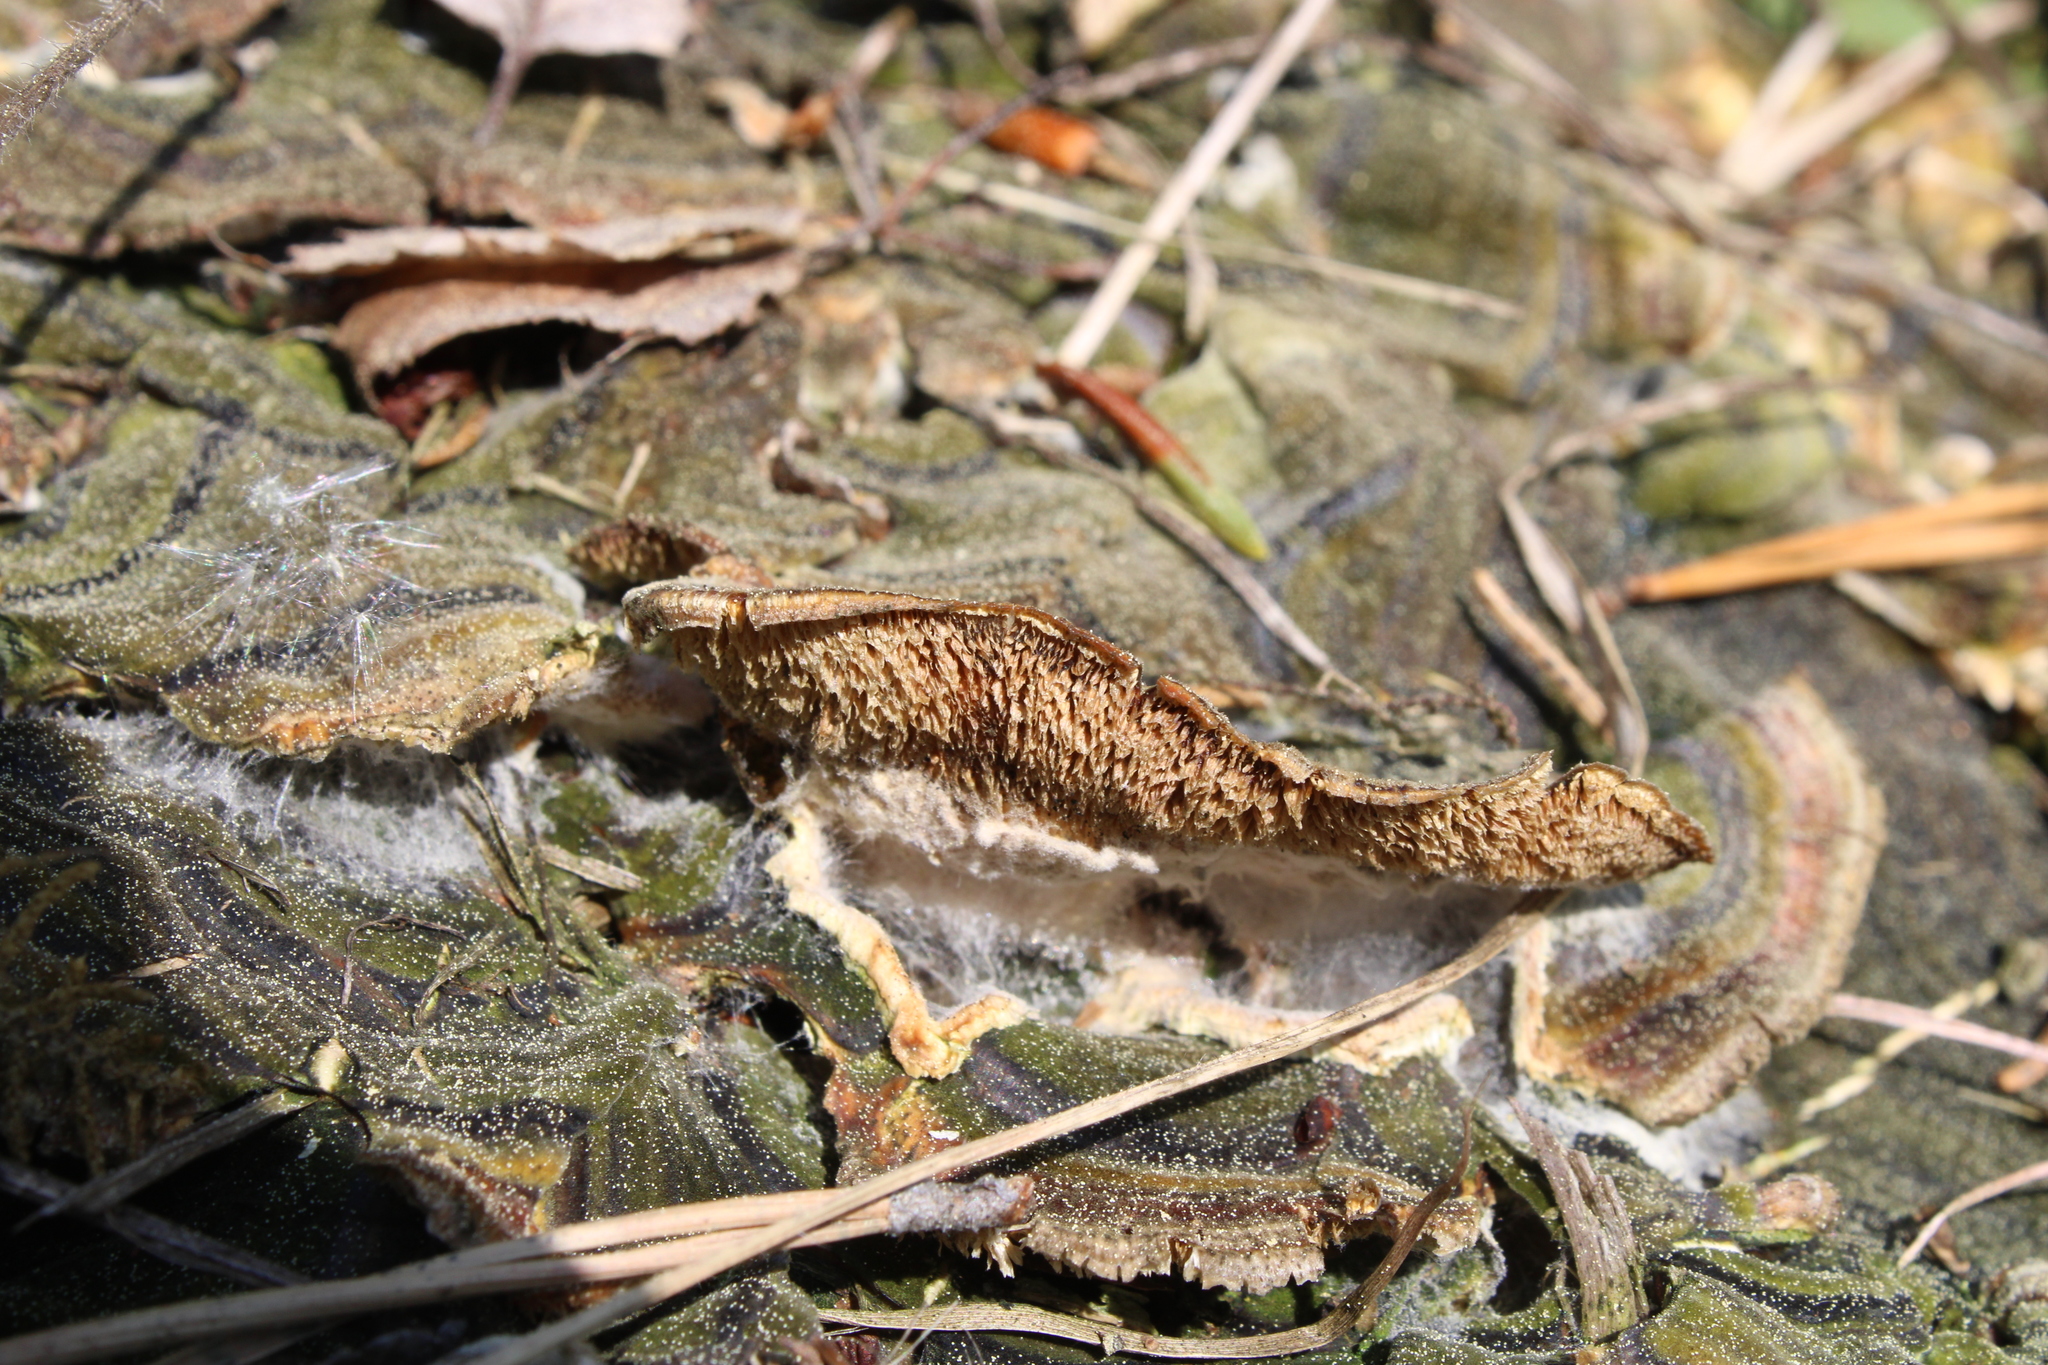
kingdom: Fungi
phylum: Basidiomycota
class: Agaricomycetes
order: Polyporales
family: Polyporaceae
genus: Trametes
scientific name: Trametes versicolor
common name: Turkeytail
